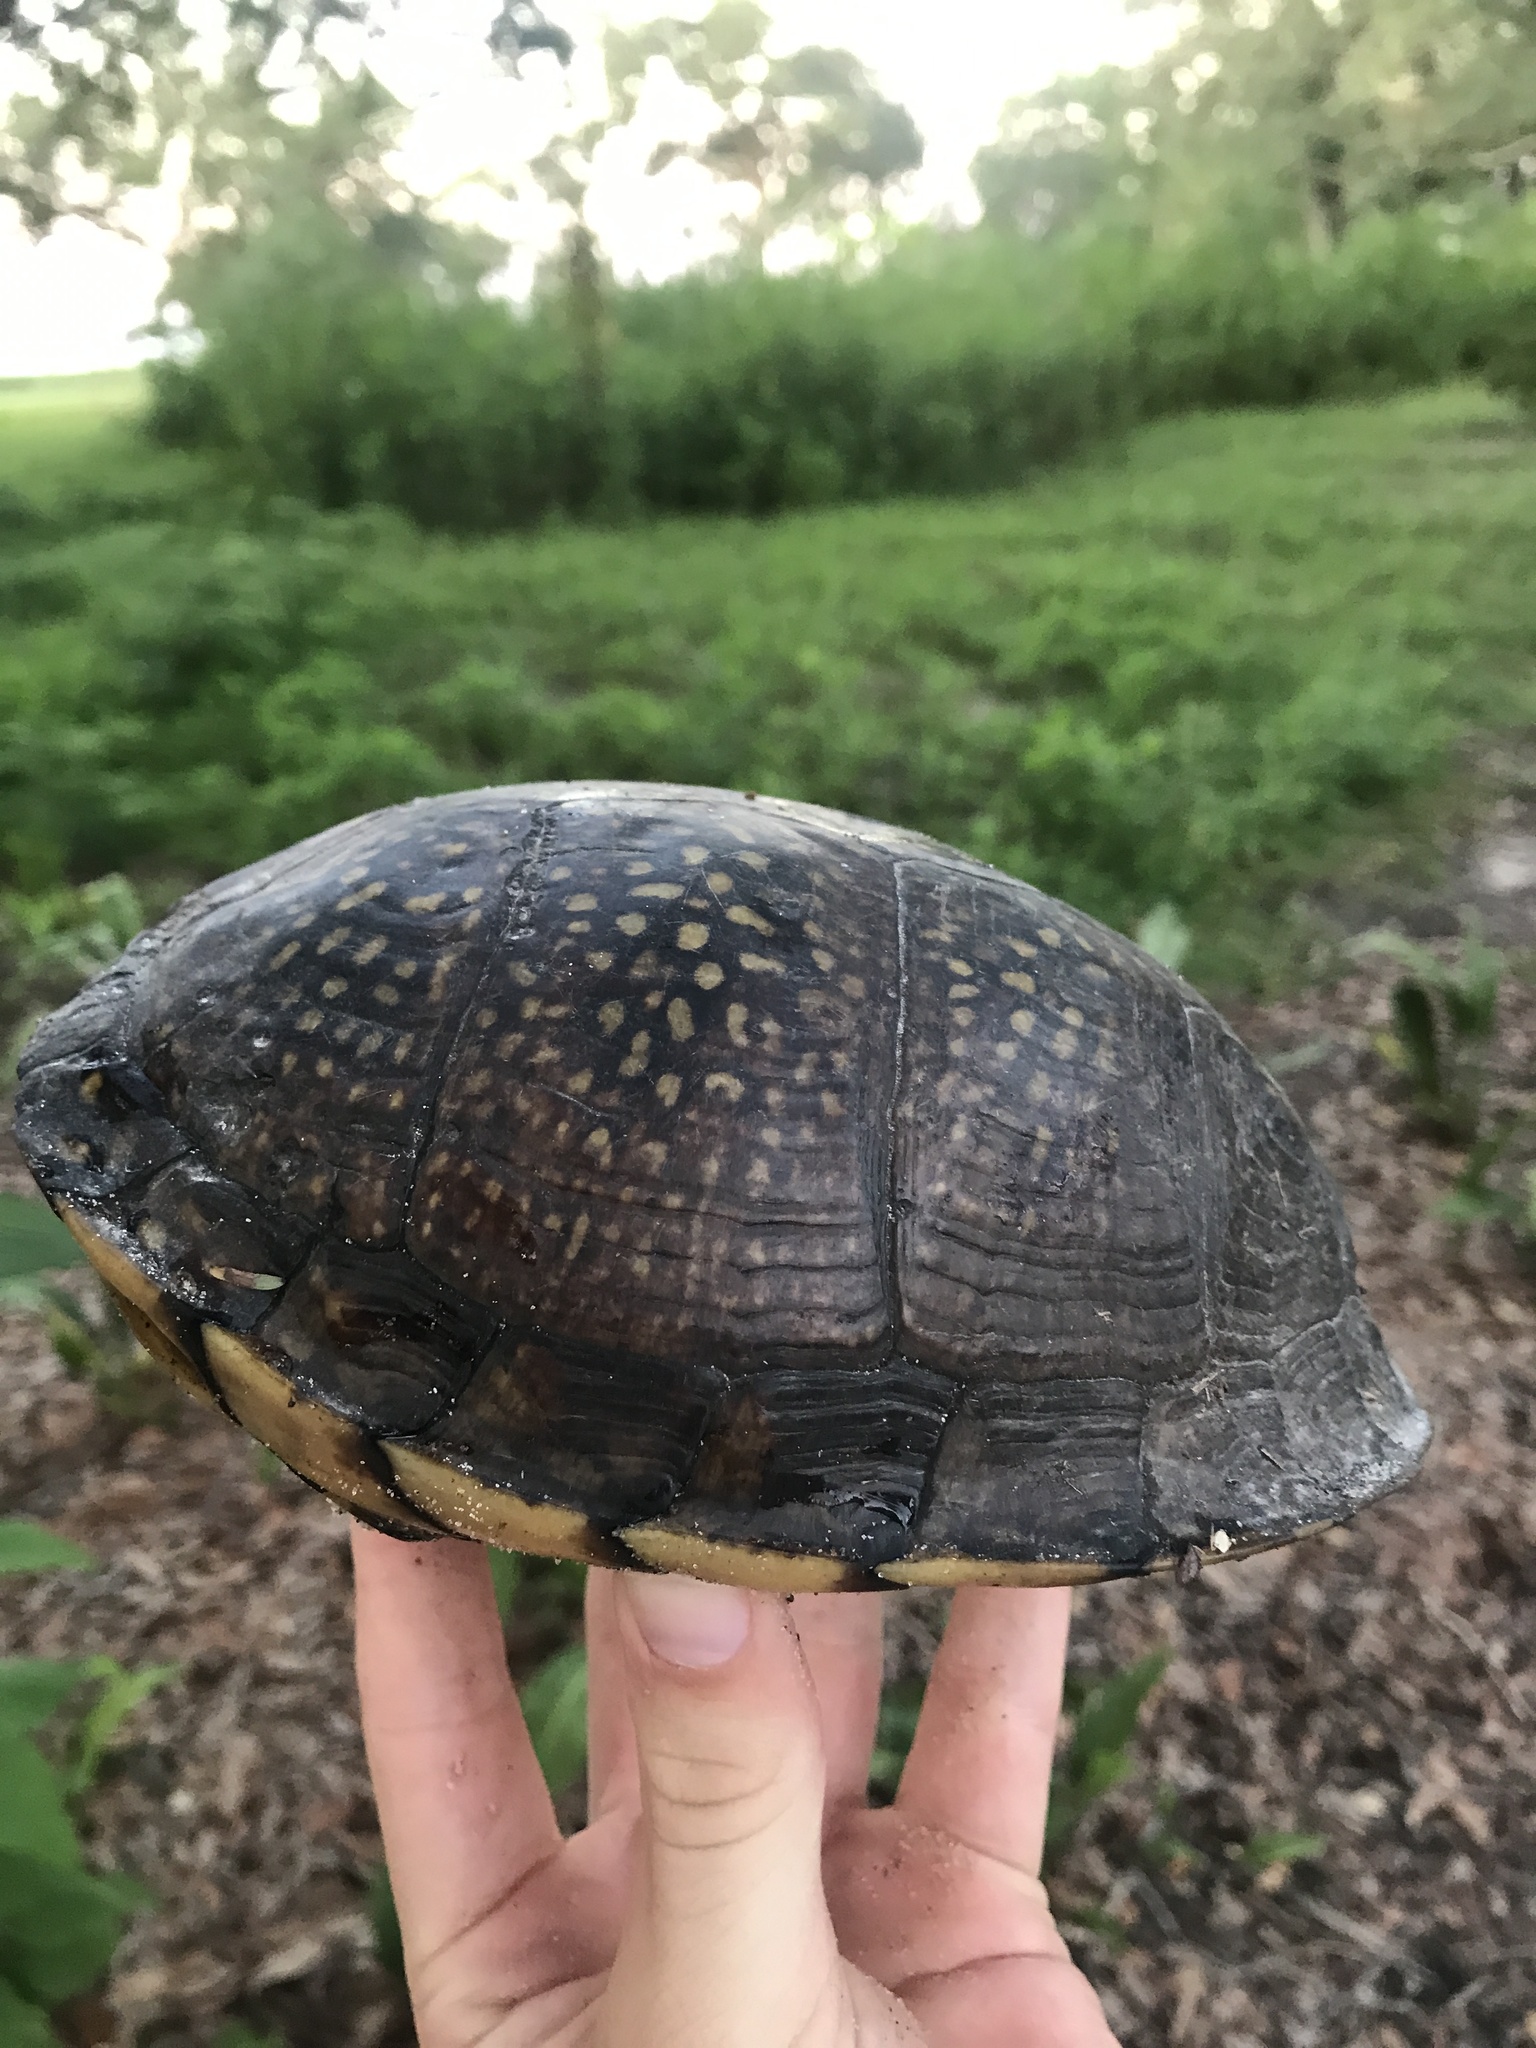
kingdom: Animalia
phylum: Chordata
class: Testudines
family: Emydidae
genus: Terrapene
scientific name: Terrapene carolina
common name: Common box turtle
